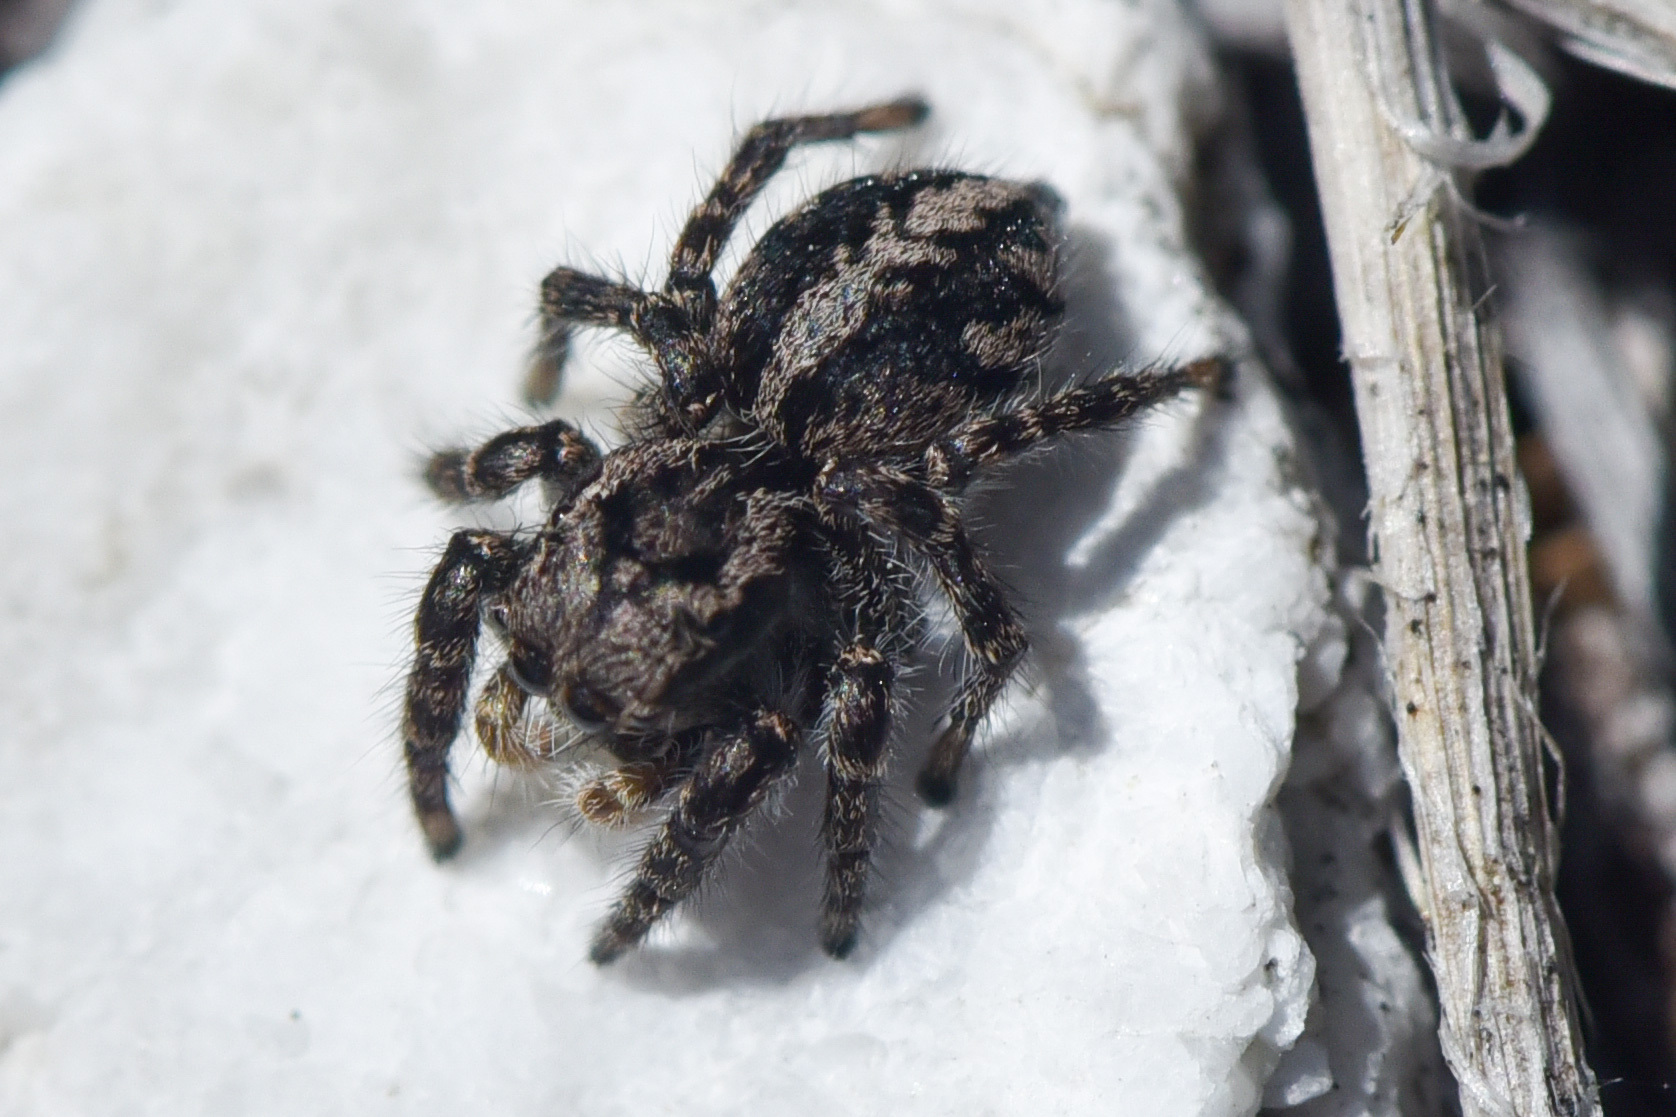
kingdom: Animalia
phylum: Arthropoda
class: Arachnida
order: Araneae
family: Salticidae
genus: Pellenes
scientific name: Pellenes lapponicus
